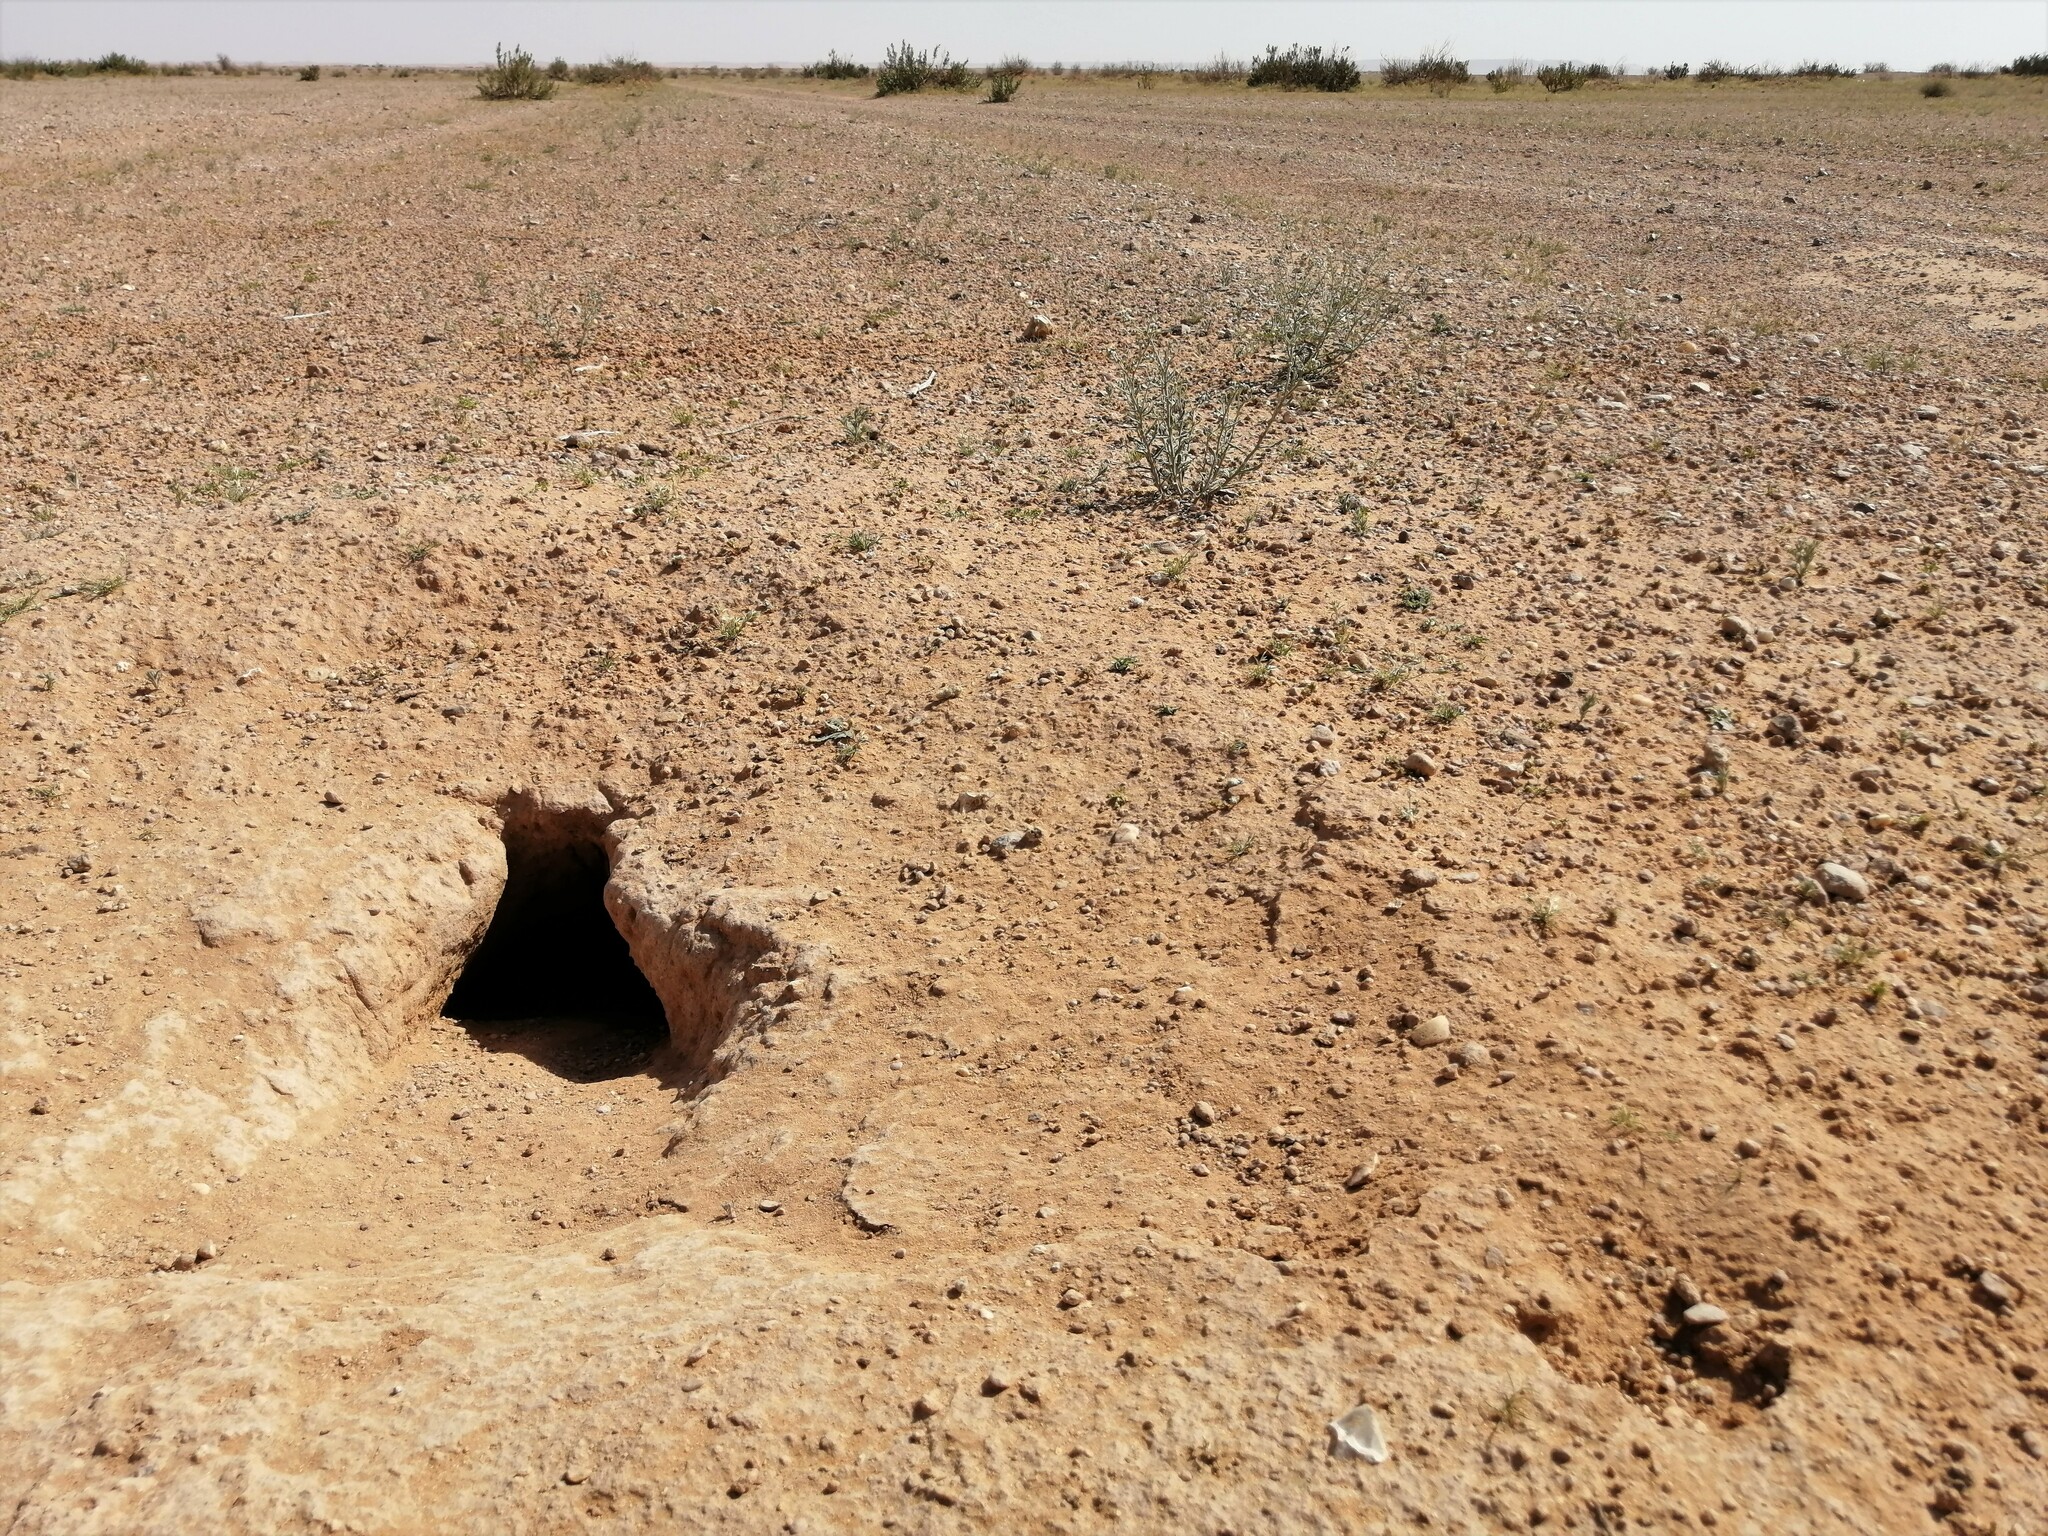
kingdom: Animalia
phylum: Chordata
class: Squamata
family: Agamidae
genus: Uromastyx
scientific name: Uromastyx aegyptia
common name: Egyptian mastigure
